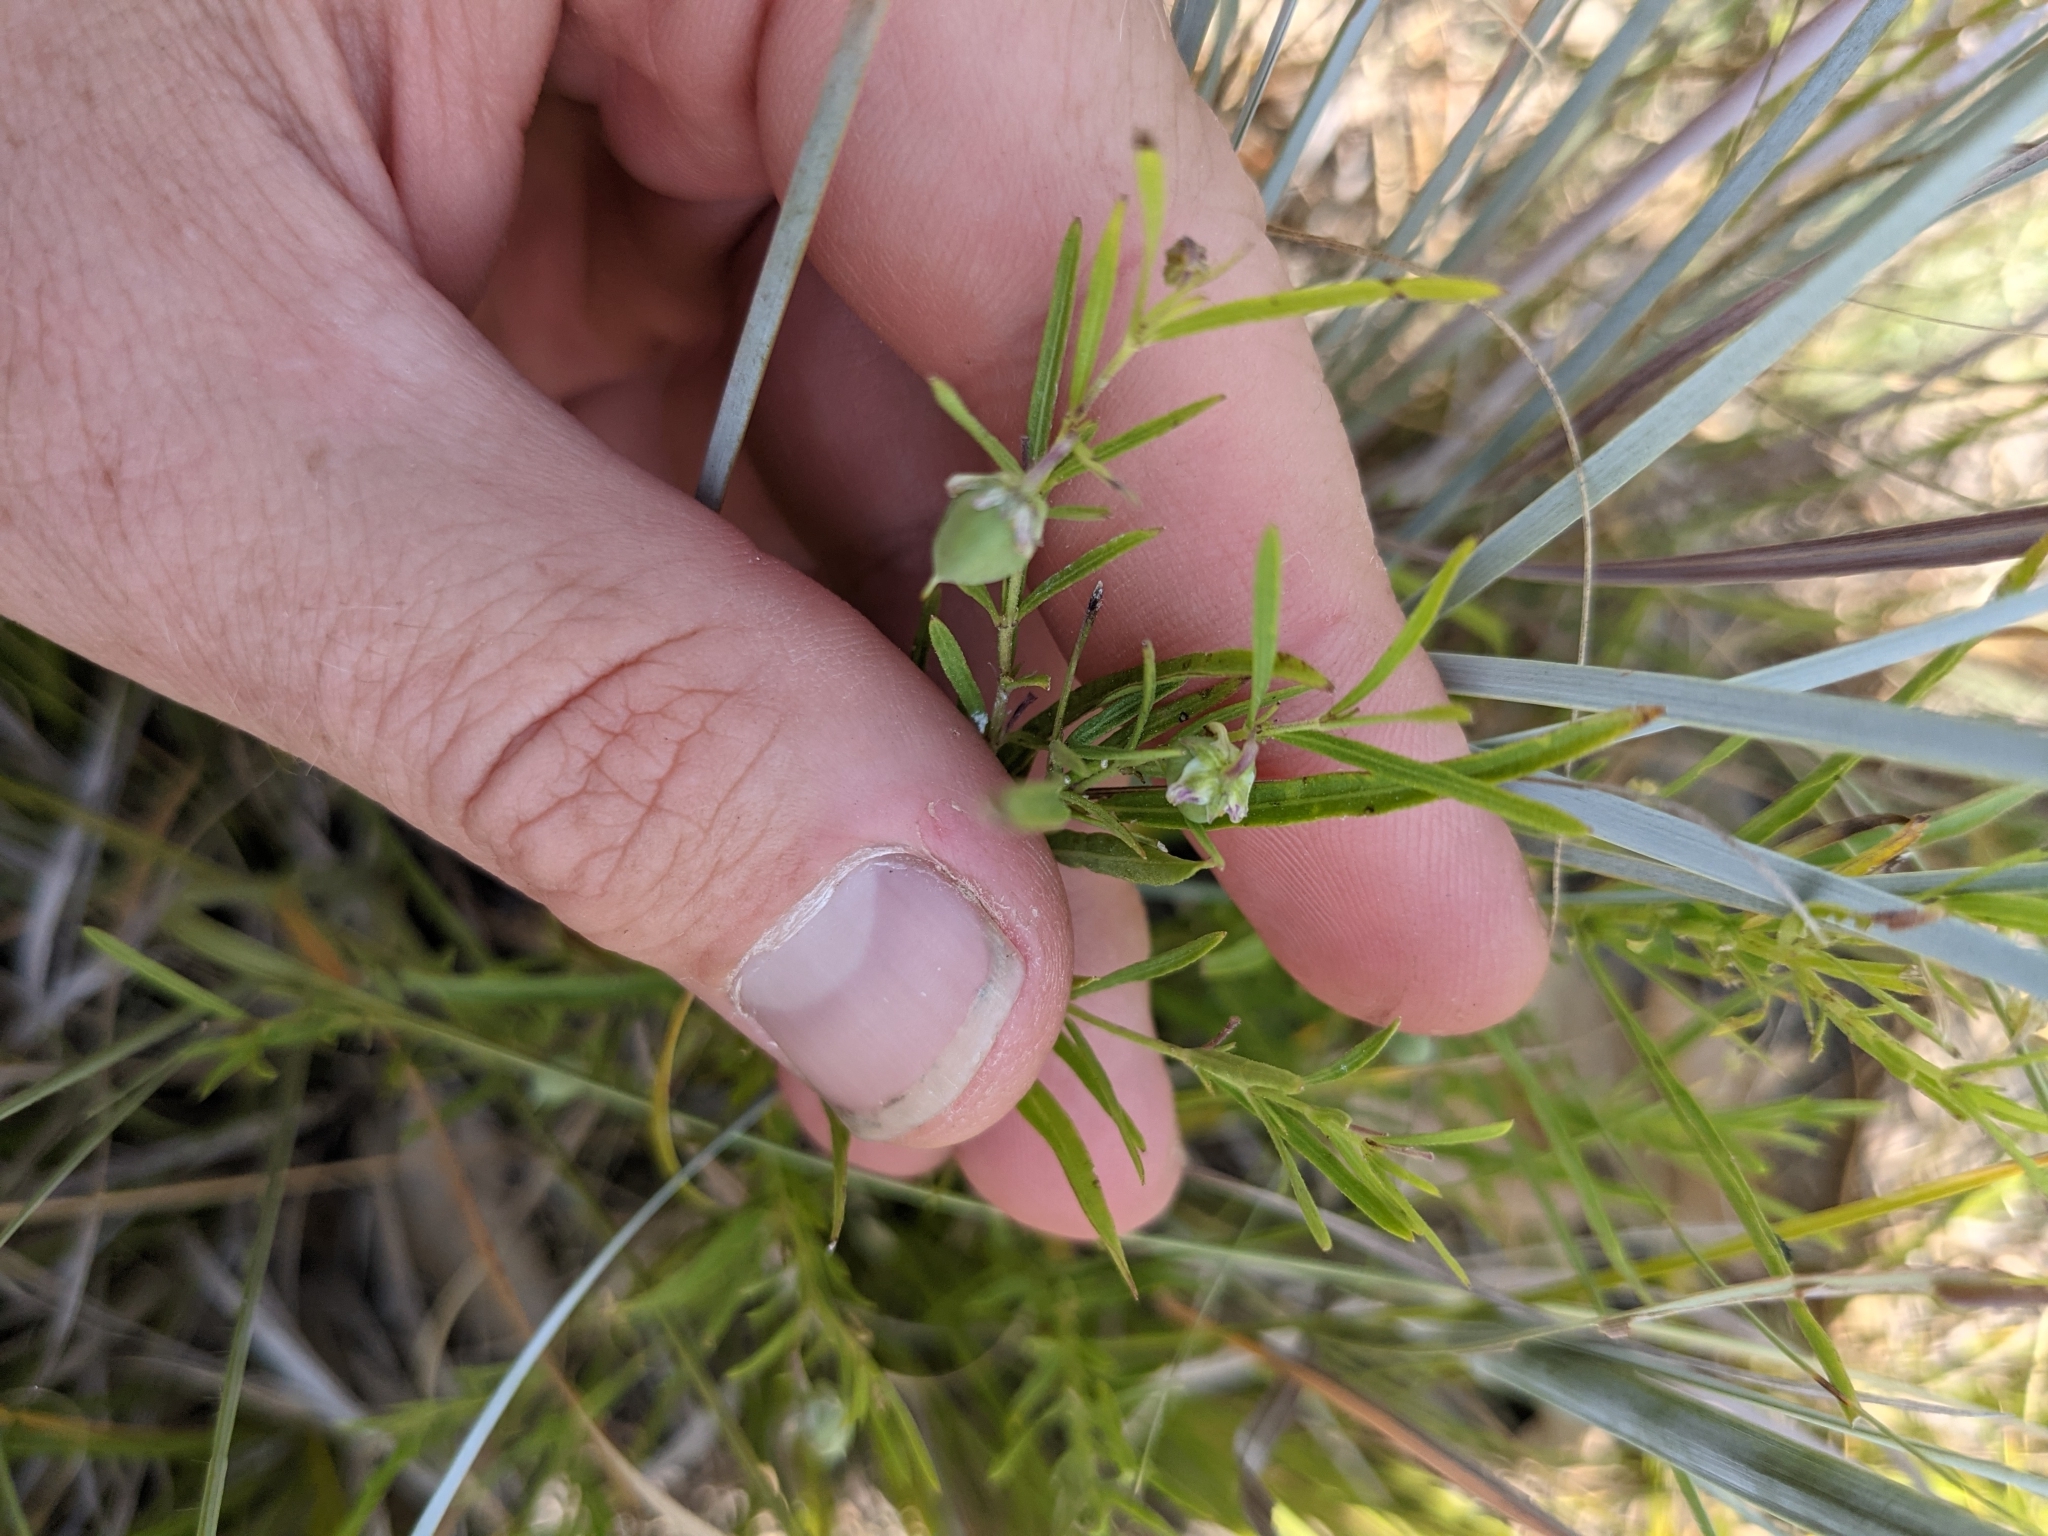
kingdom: Plantae
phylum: Tracheophyta
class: Magnoliopsida
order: Malpighiales
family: Violaceae
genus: Pombalia
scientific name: Pombalia verticillata
